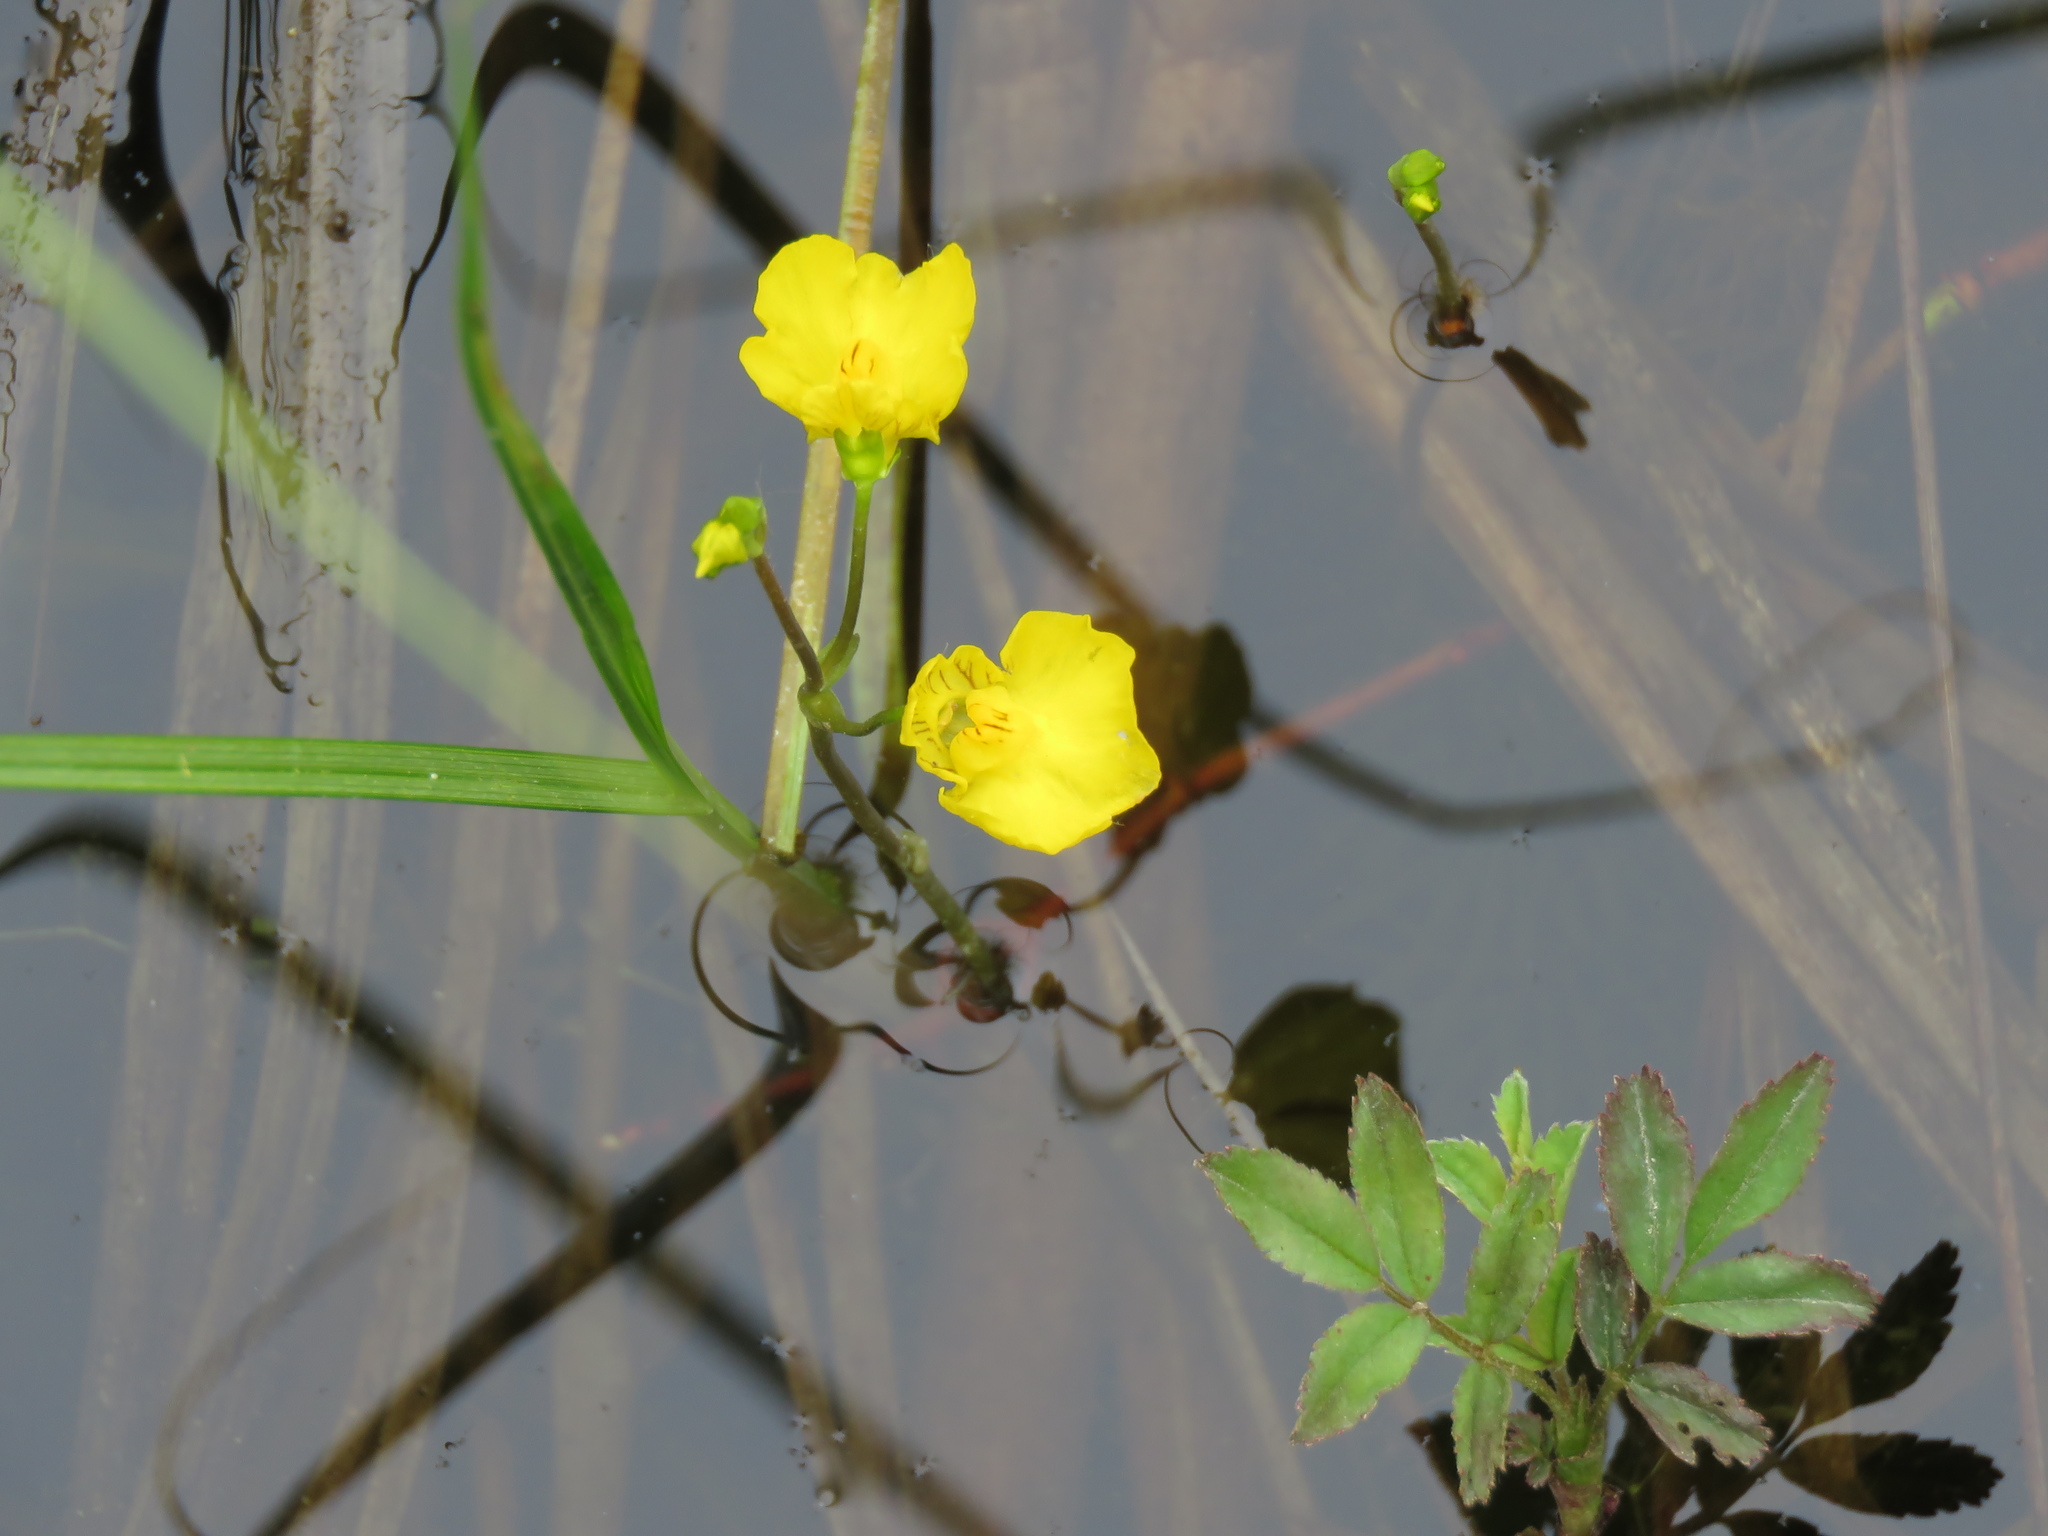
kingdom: Plantae
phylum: Tracheophyta
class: Magnoliopsida
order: Lamiales
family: Lentibulariaceae
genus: Utricularia
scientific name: Utricularia intermedia
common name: Intermediate bladderwort
